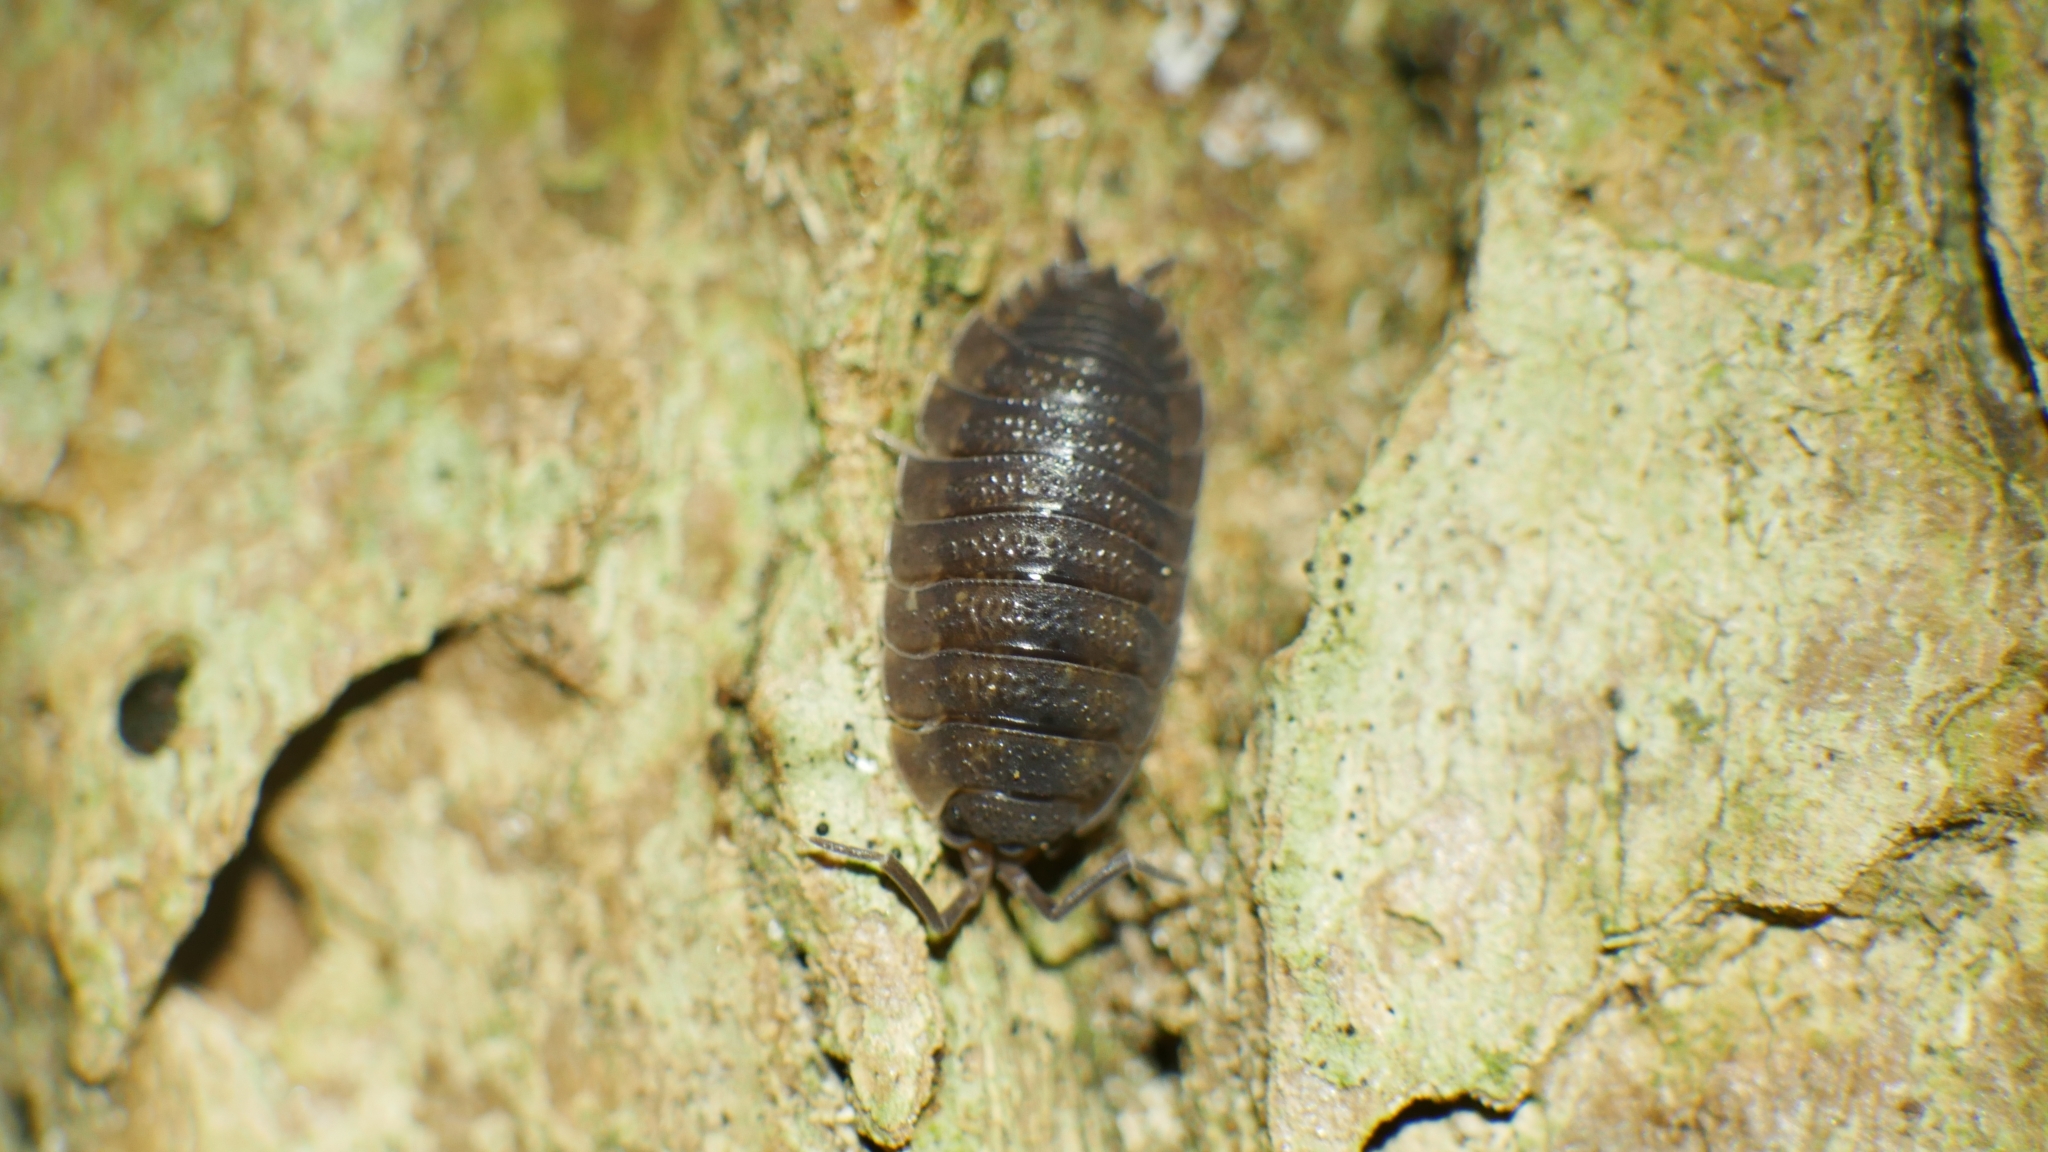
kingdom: Animalia
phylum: Arthropoda
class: Malacostraca
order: Isopoda
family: Porcellionidae
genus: Porcellio
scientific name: Porcellio scaber
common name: Common rough woodlouse
